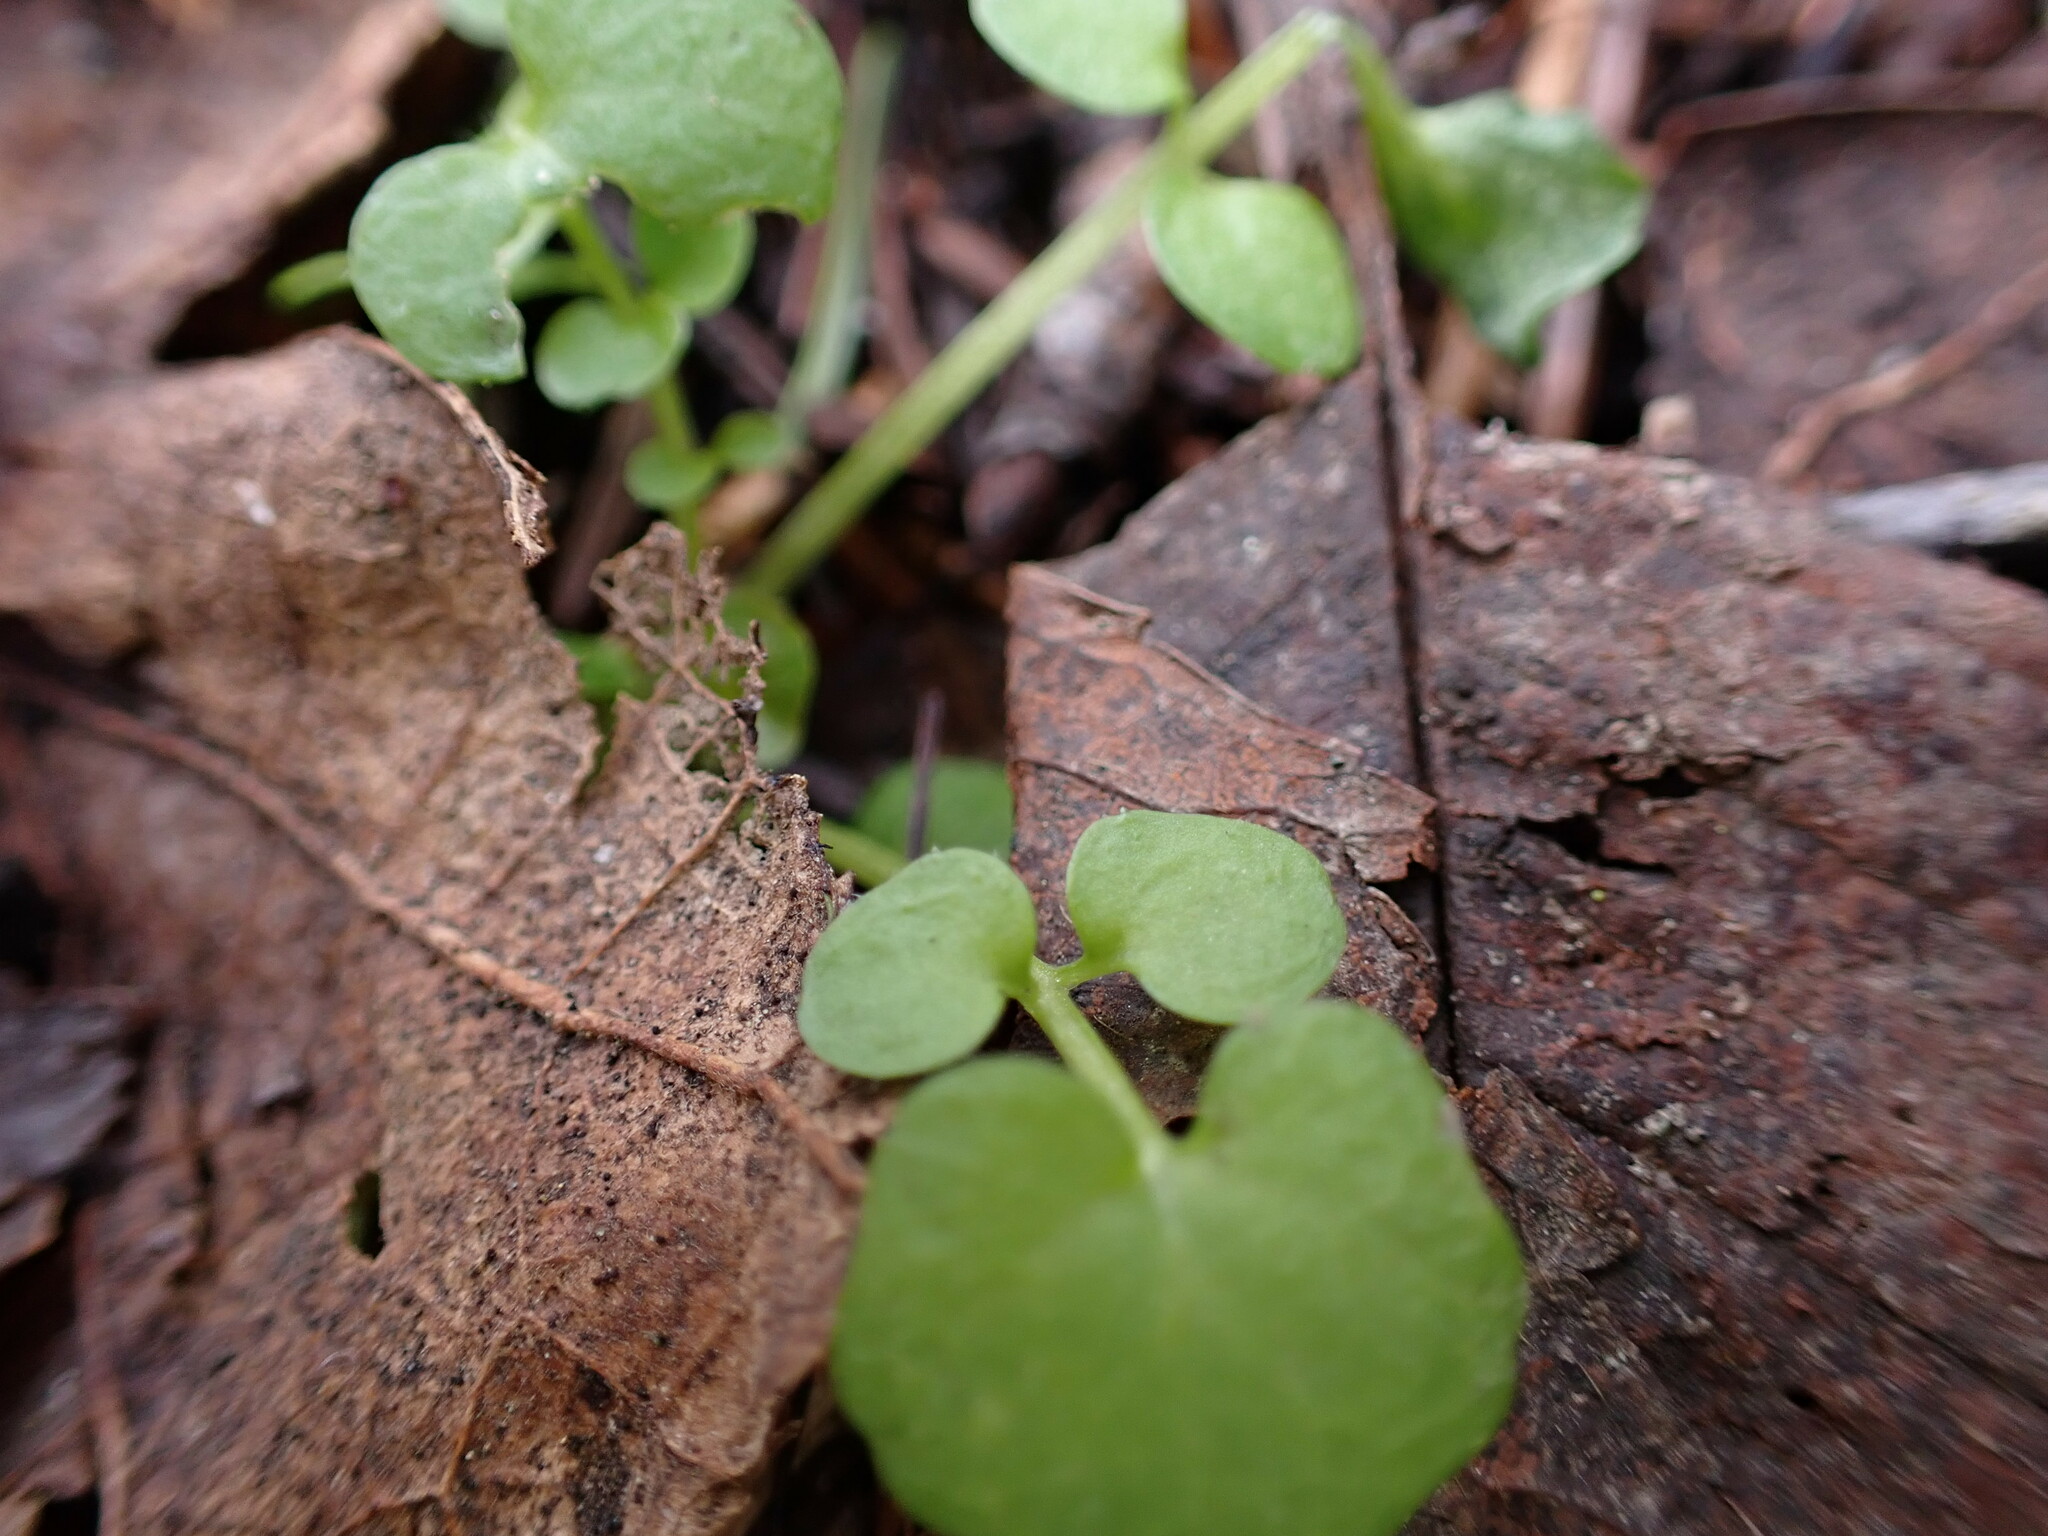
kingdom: Plantae
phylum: Tracheophyta
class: Magnoliopsida
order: Brassicales
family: Brassicaceae
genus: Cardamine
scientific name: Cardamine hirsuta
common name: Hairy bittercress
